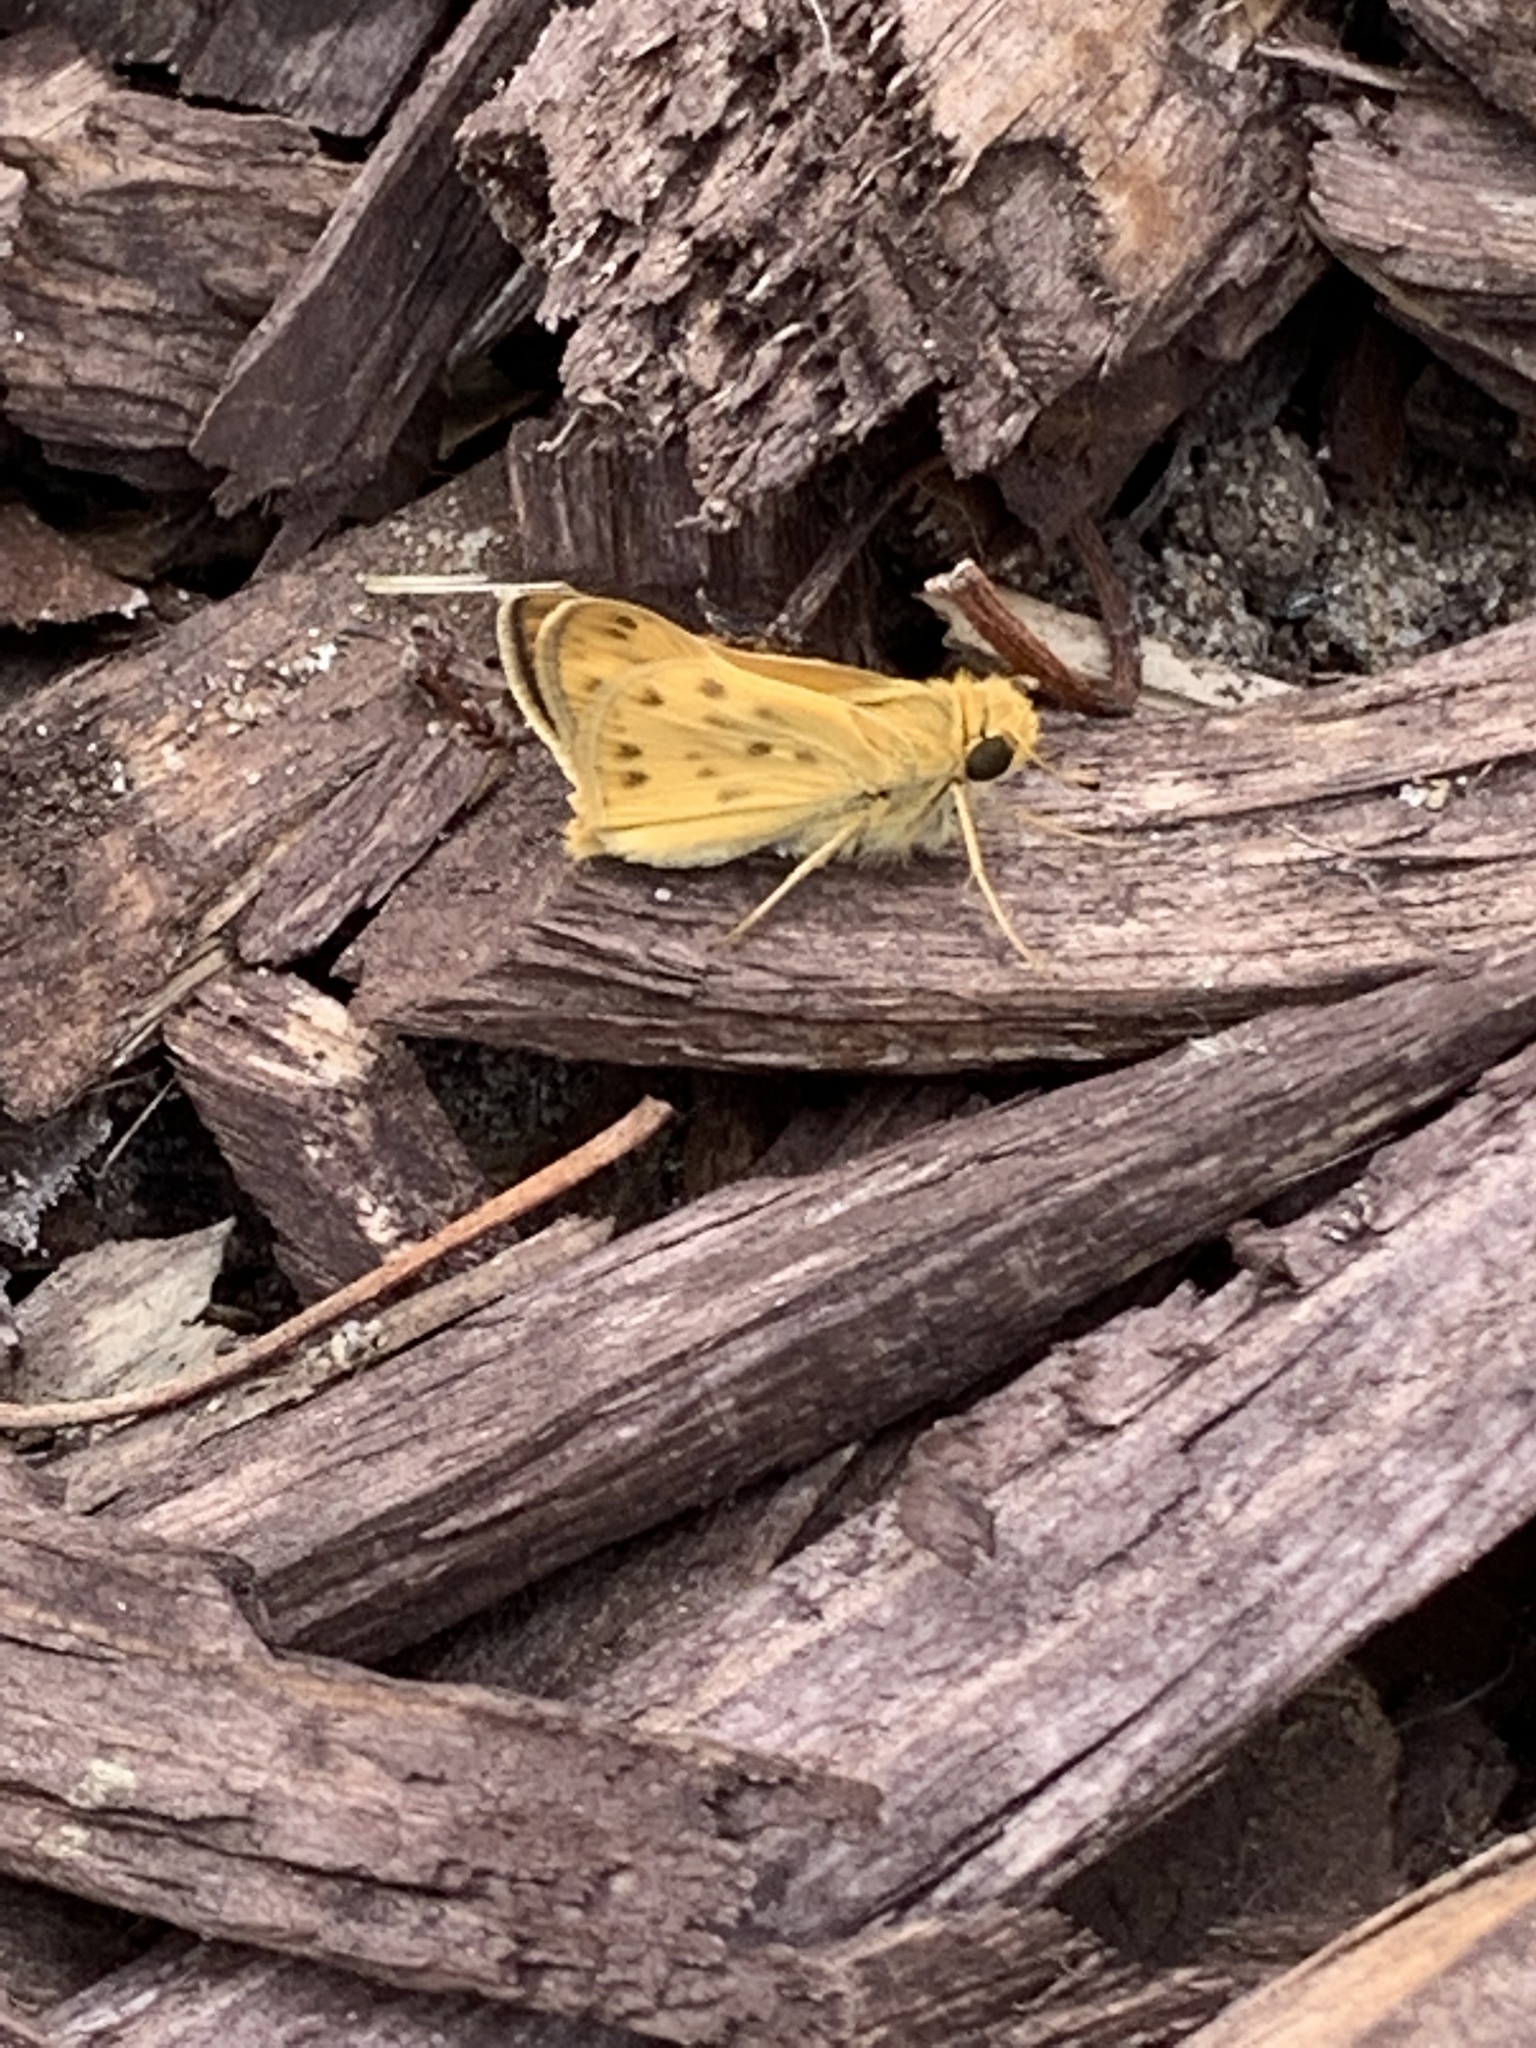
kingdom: Animalia
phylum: Arthropoda
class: Insecta
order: Lepidoptera
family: Hesperiidae
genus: Hylephila
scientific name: Hylephila phyleus
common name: Fiery skipper
